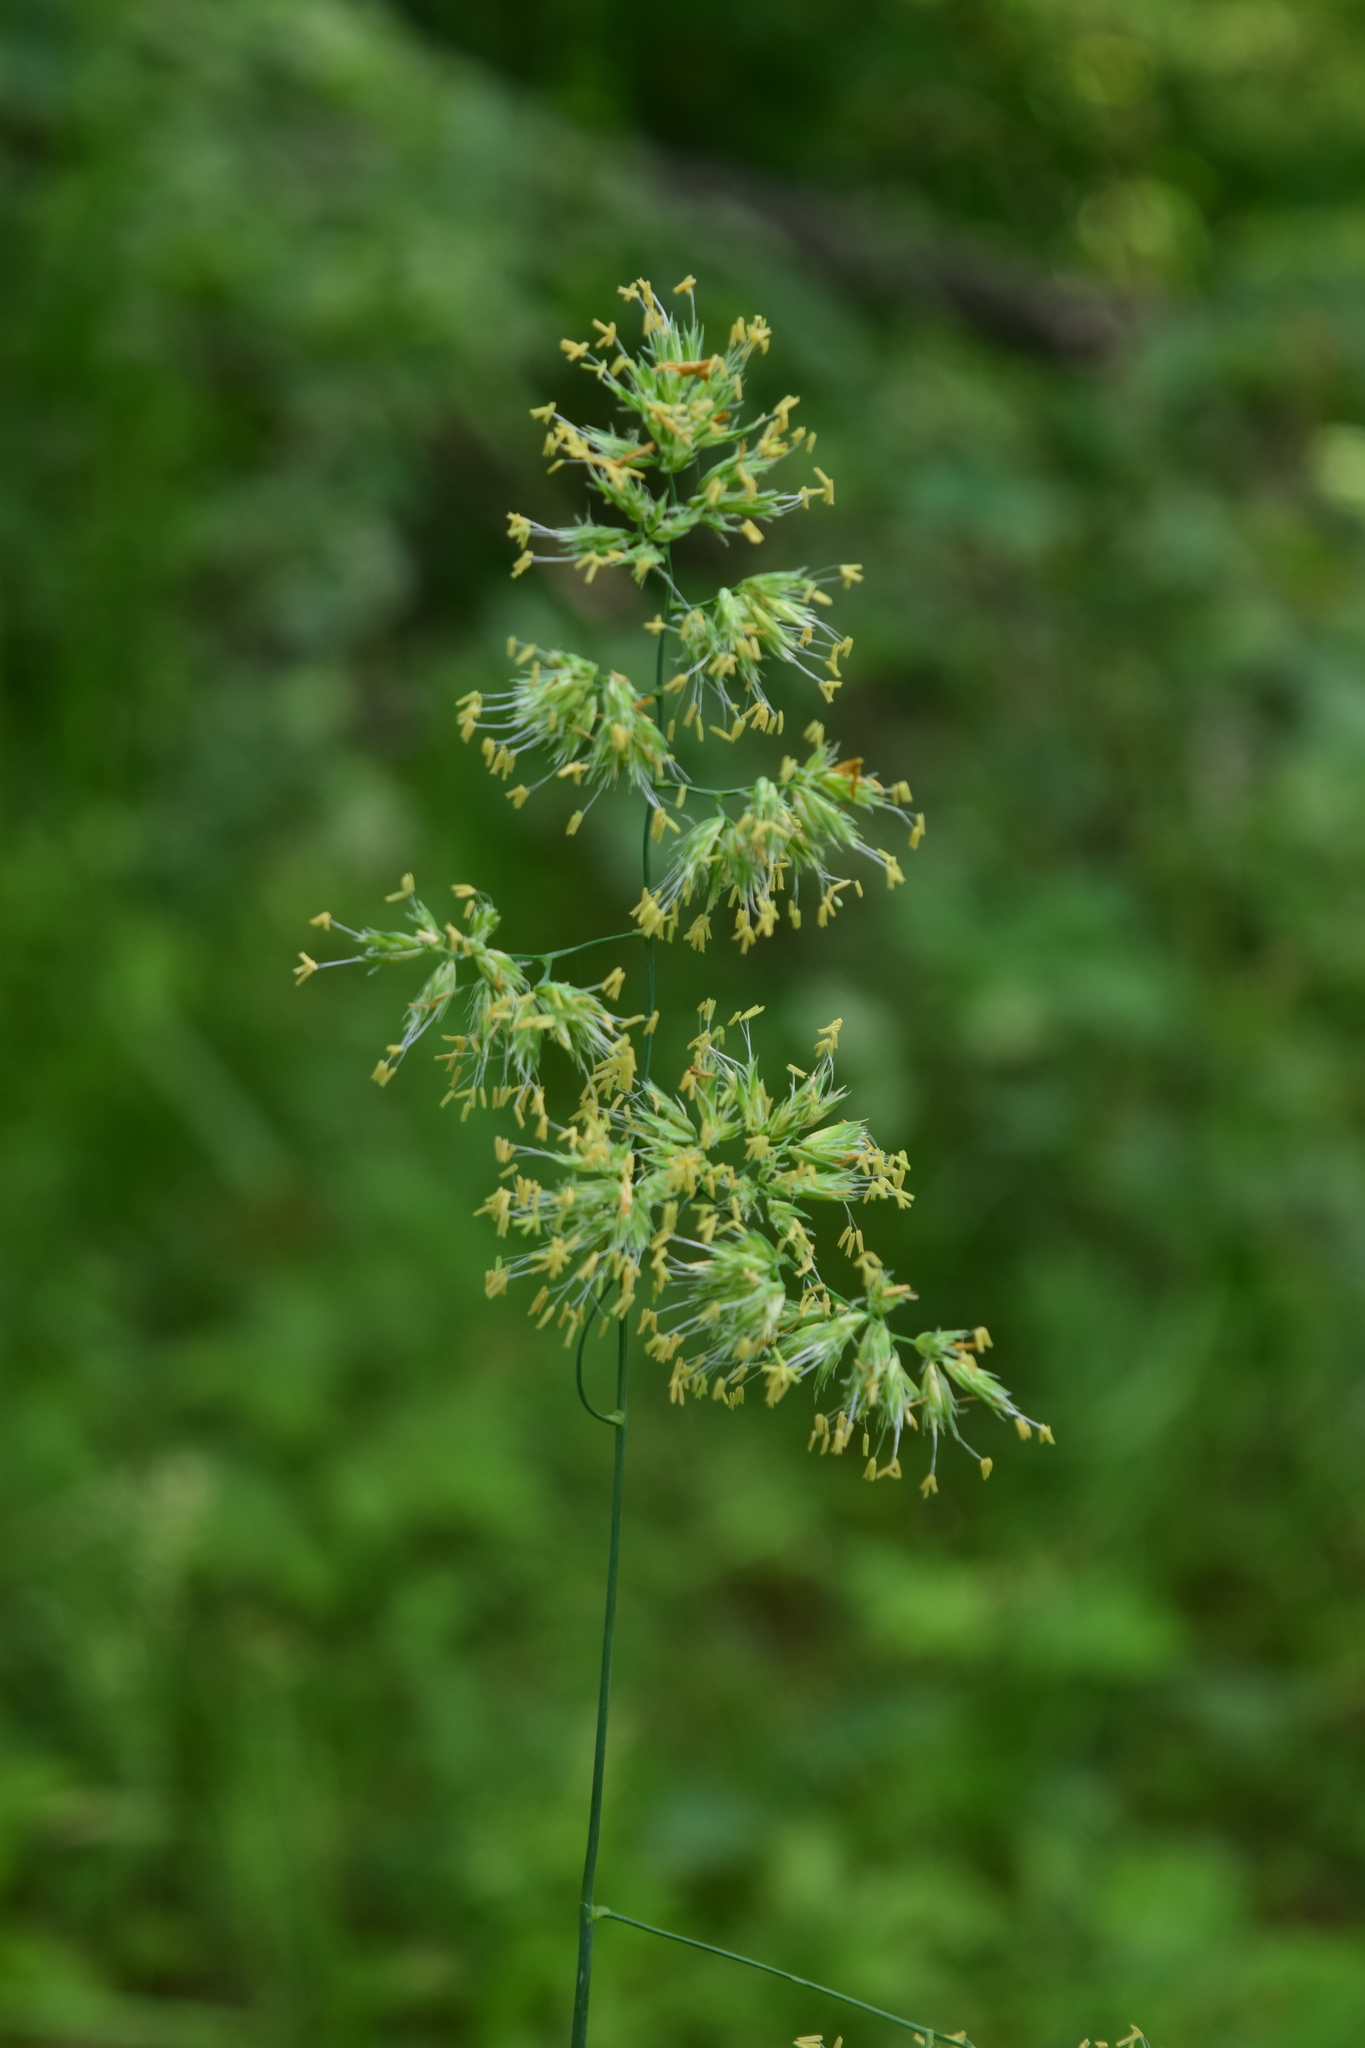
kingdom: Plantae
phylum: Tracheophyta
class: Liliopsida
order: Poales
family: Poaceae
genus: Dactylis
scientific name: Dactylis glomerata
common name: Orchardgrass
